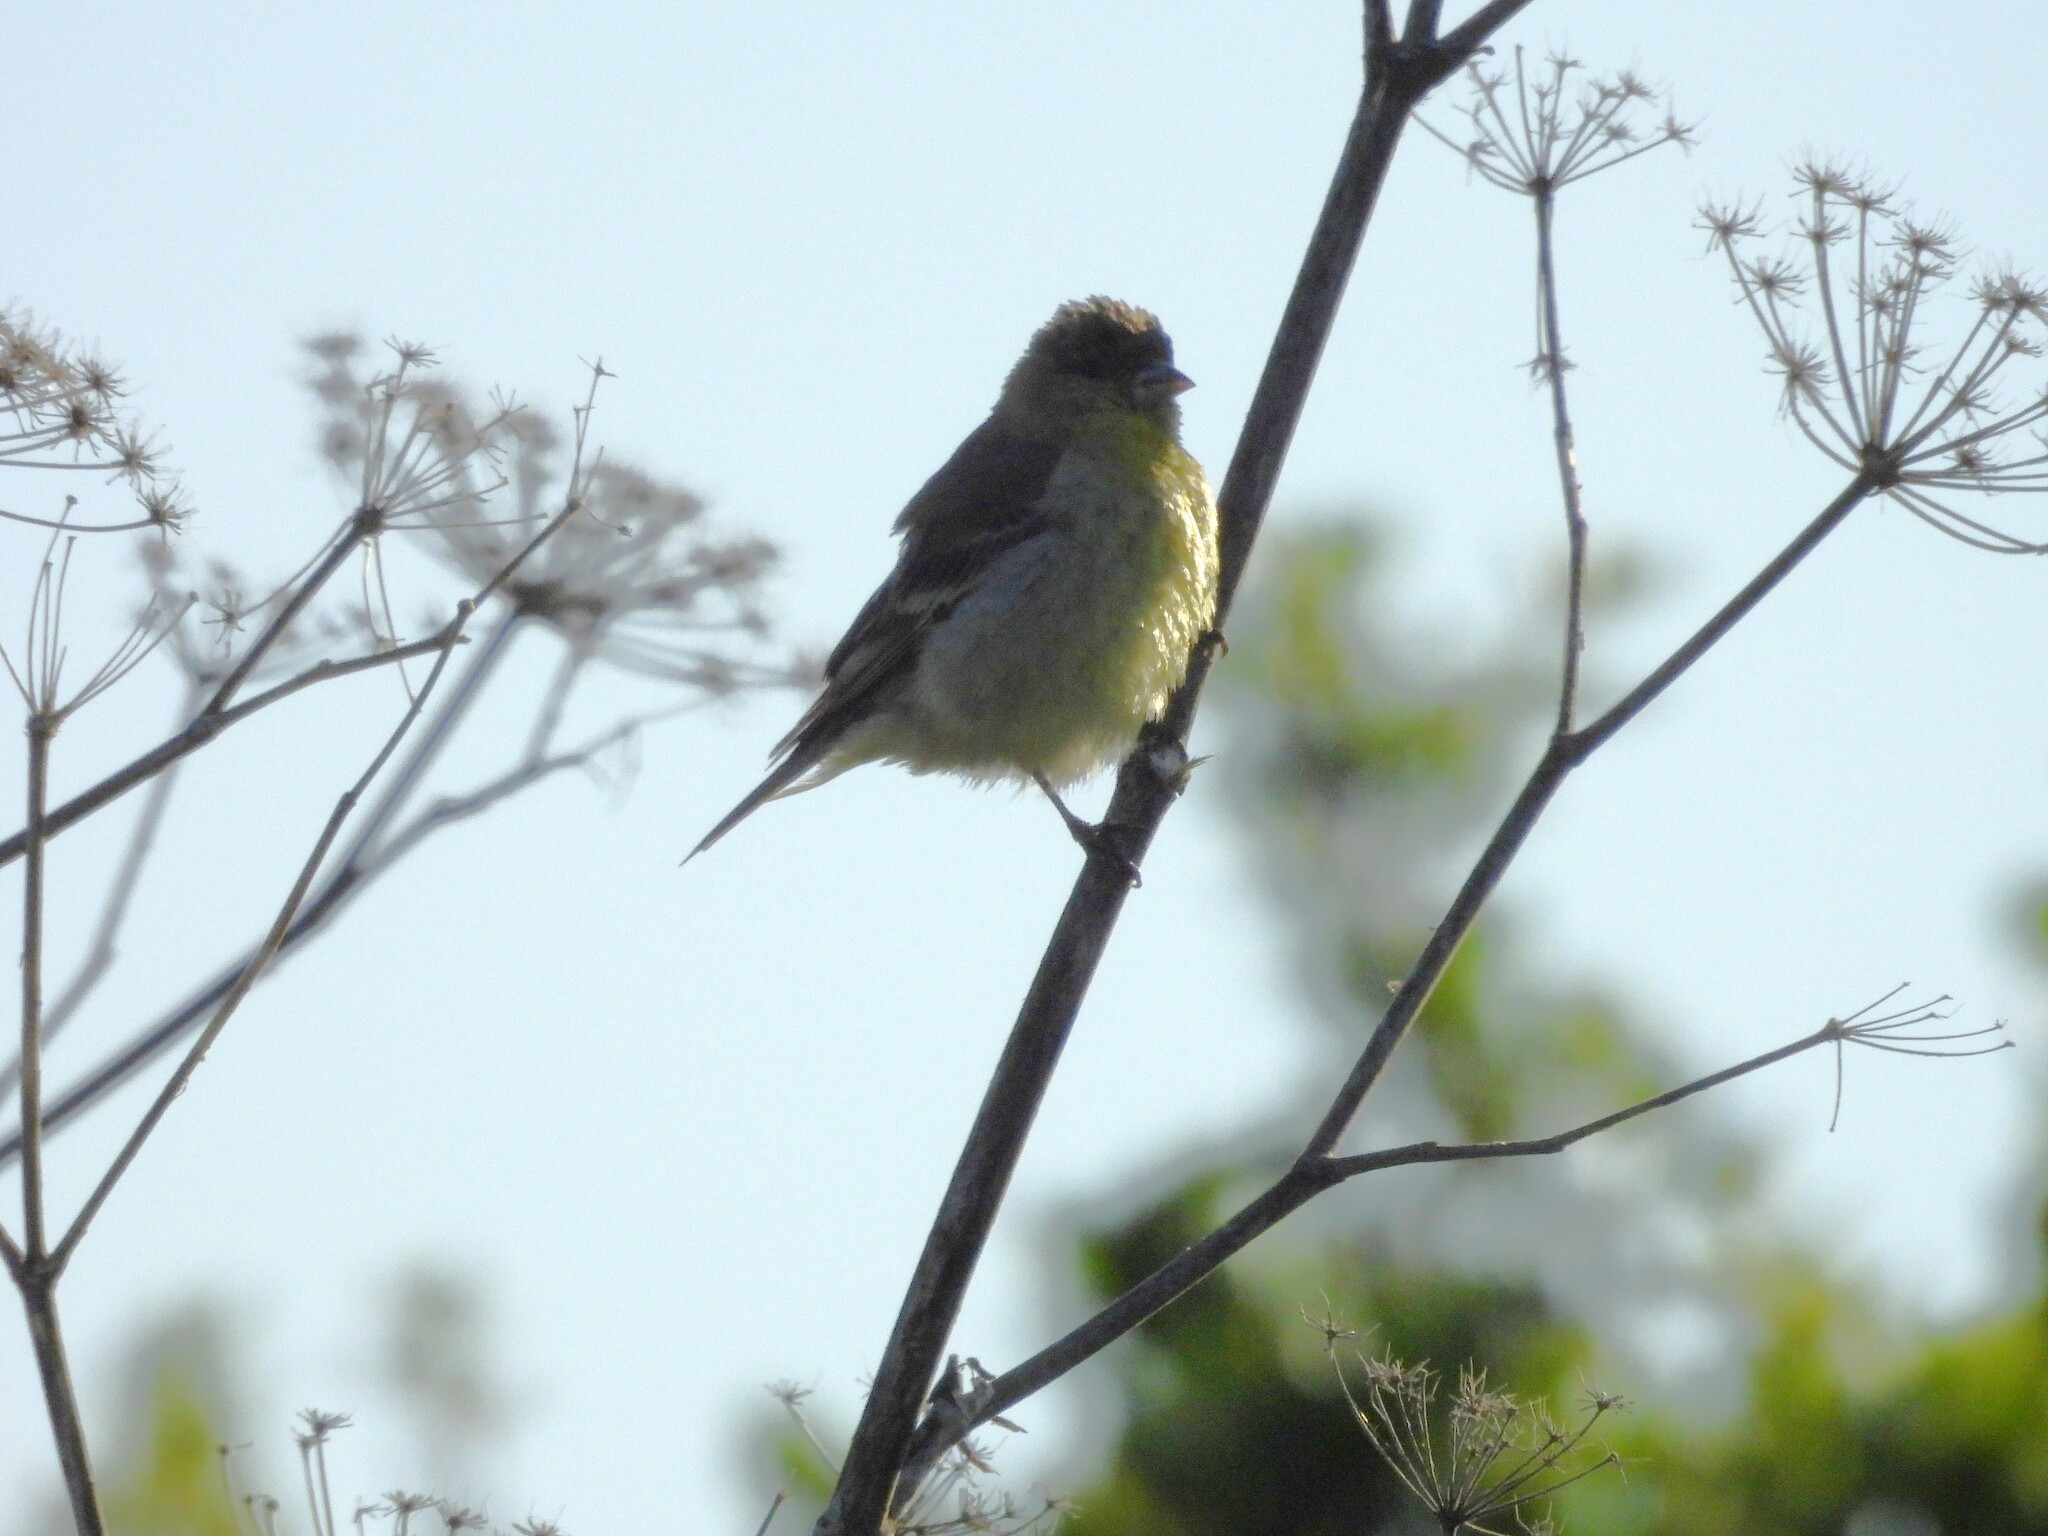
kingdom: Animalia
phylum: Chordata
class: Aves
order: Passeriformes
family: Fringillidae
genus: Spinus
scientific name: Spinus psaltria
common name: Lesser goldfinch
